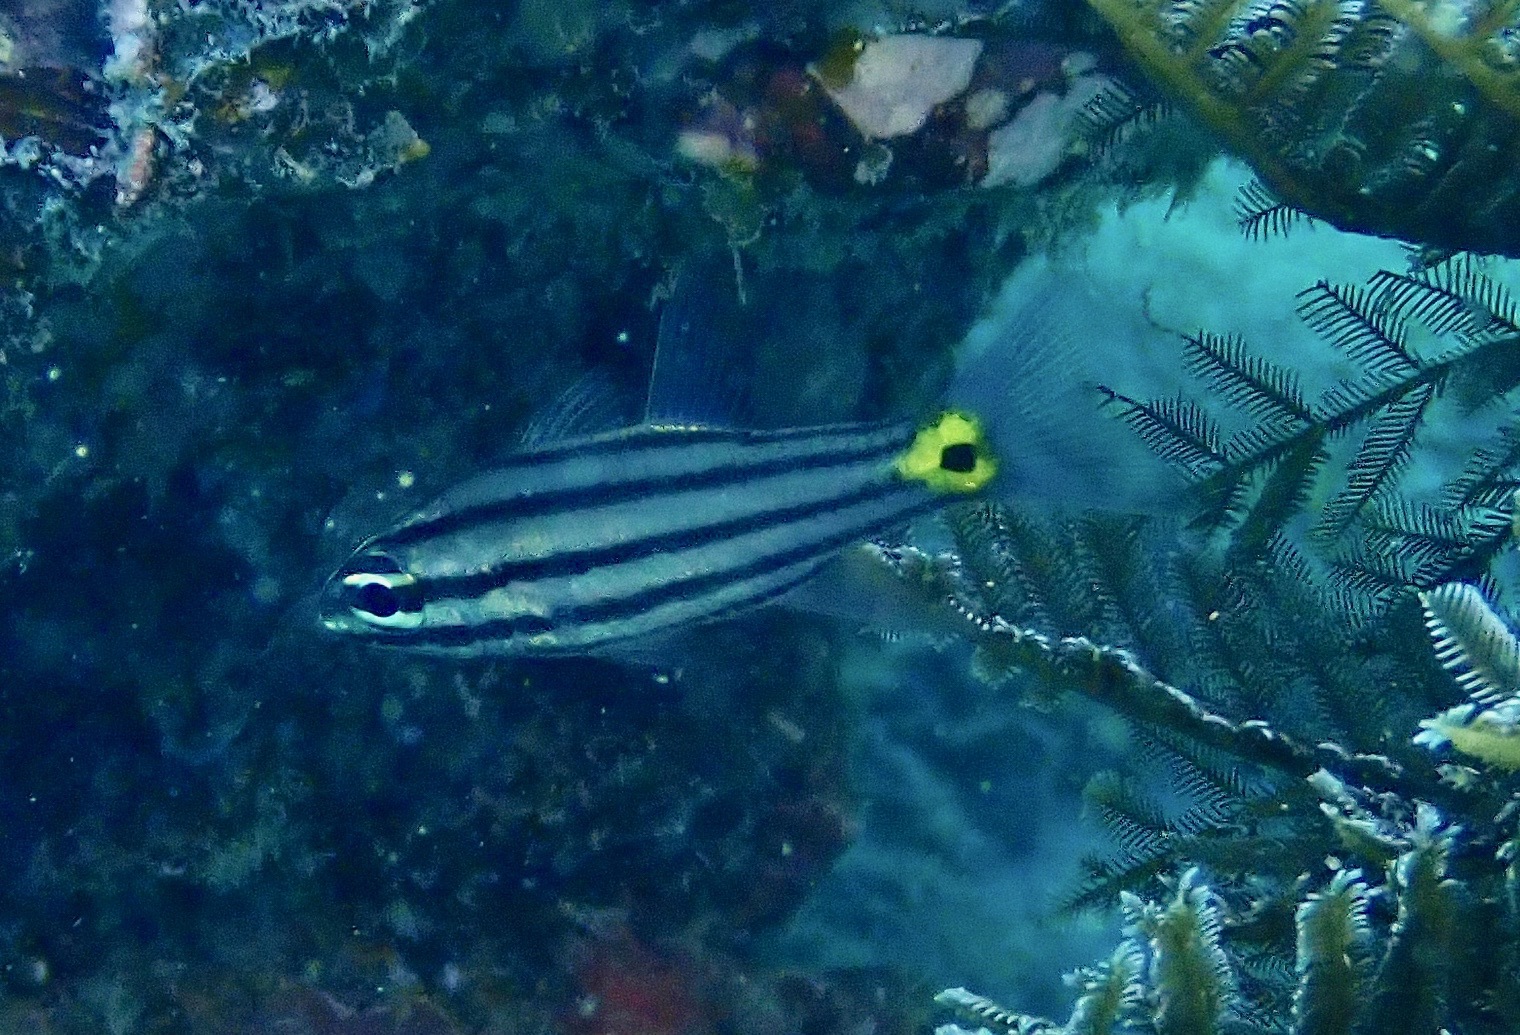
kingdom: Animalia
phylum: Chordata
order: Perciformes
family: Apogonidae
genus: Cheilodipterus
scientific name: Cheilodipterus quinquelineatus
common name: Five-lined cardinalfish
